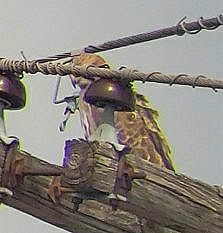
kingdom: Animalia
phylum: Chordata
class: Aves
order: Accipitriformes
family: Accipitridae
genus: Buteo
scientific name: Buteo jamaicensis
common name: Red-tailed hawk
